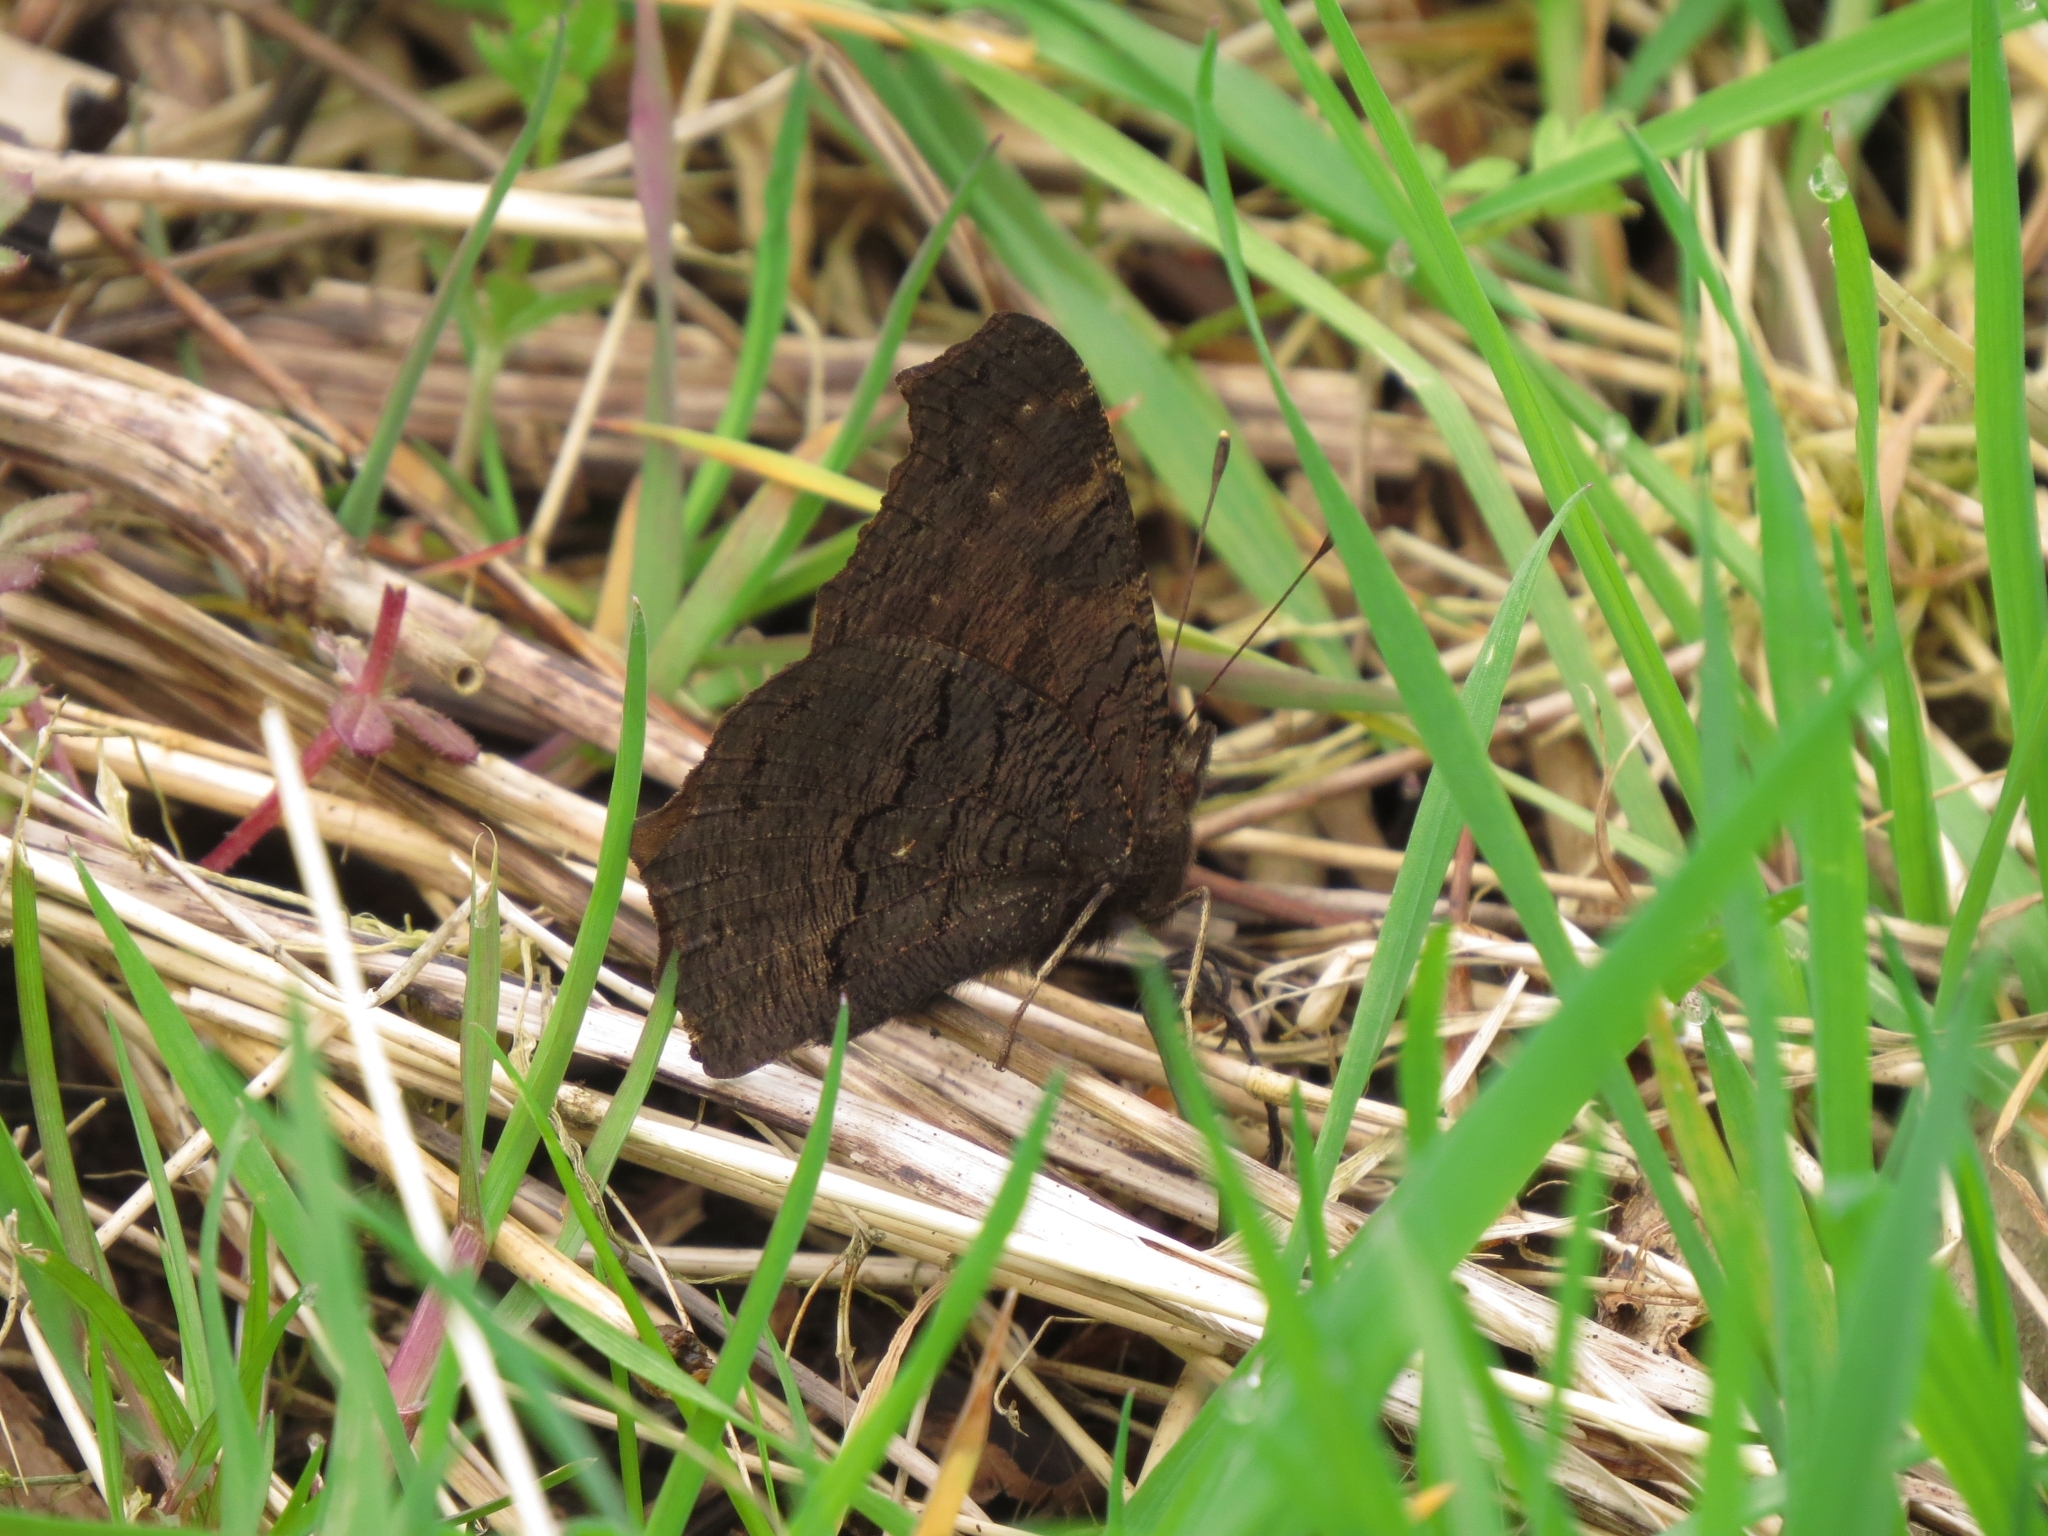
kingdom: Animalia
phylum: Arthropoda
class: Insecta
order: Lepidoptera
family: Nymphalidae
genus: Aglais
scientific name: Aglais io
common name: Peacock
